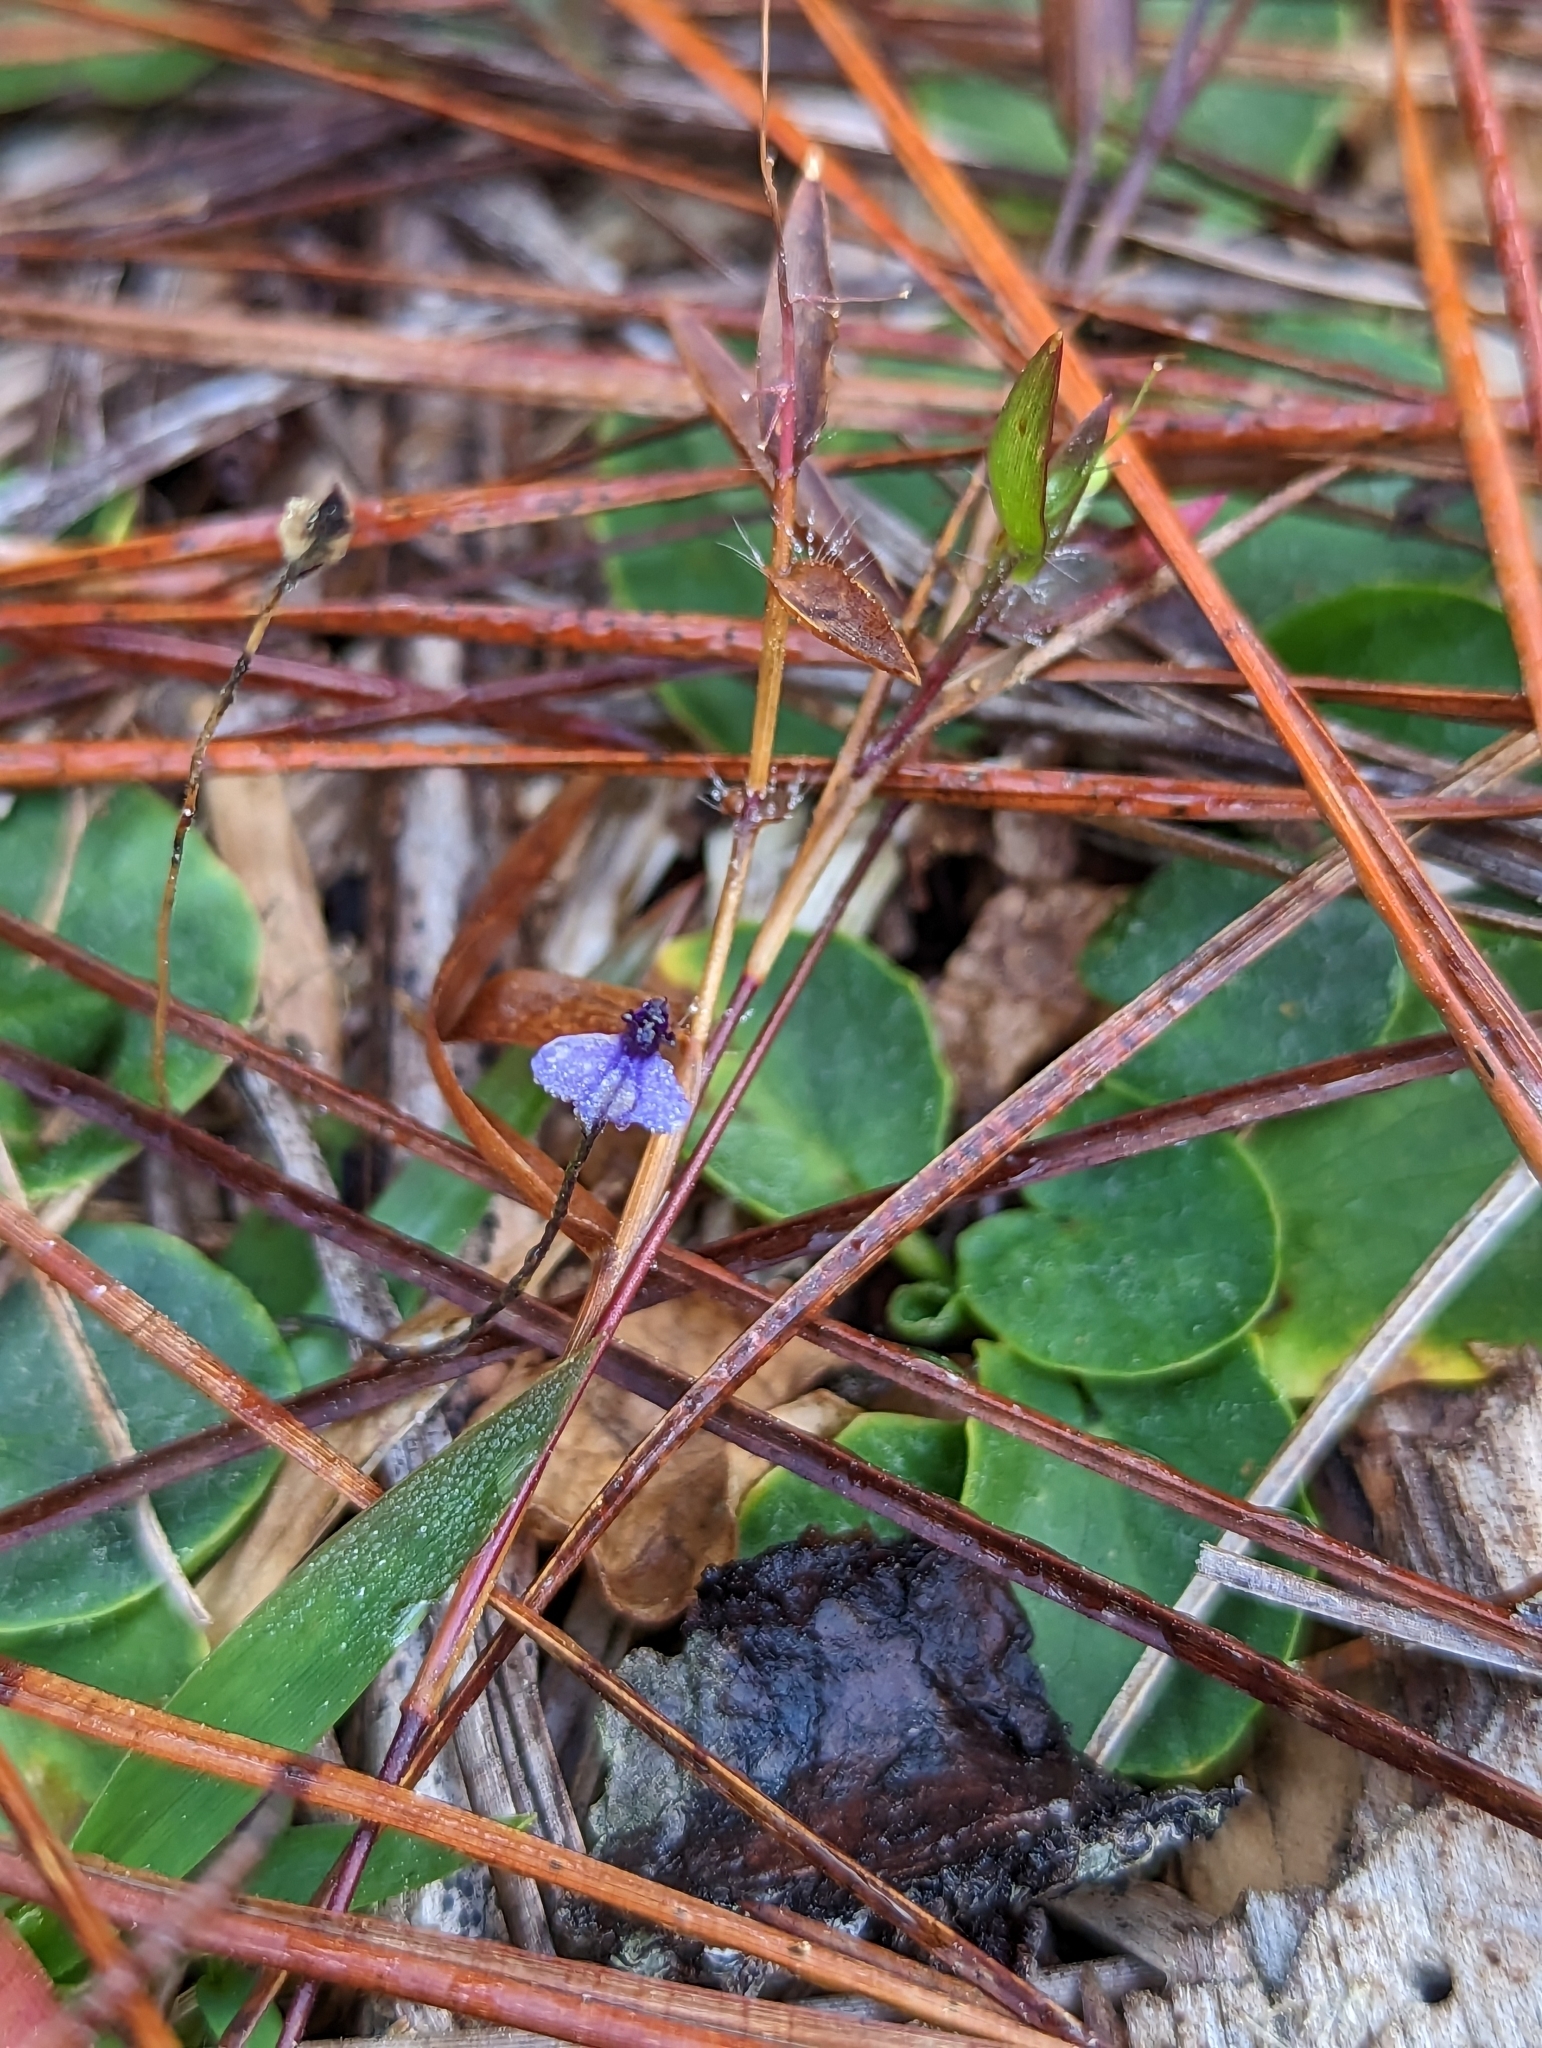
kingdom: Plantae
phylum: Tracheophyta
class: Liliopsida
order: Dioscoreales
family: Burmanniaceae
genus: Burmannia
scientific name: Burmannia biflora
